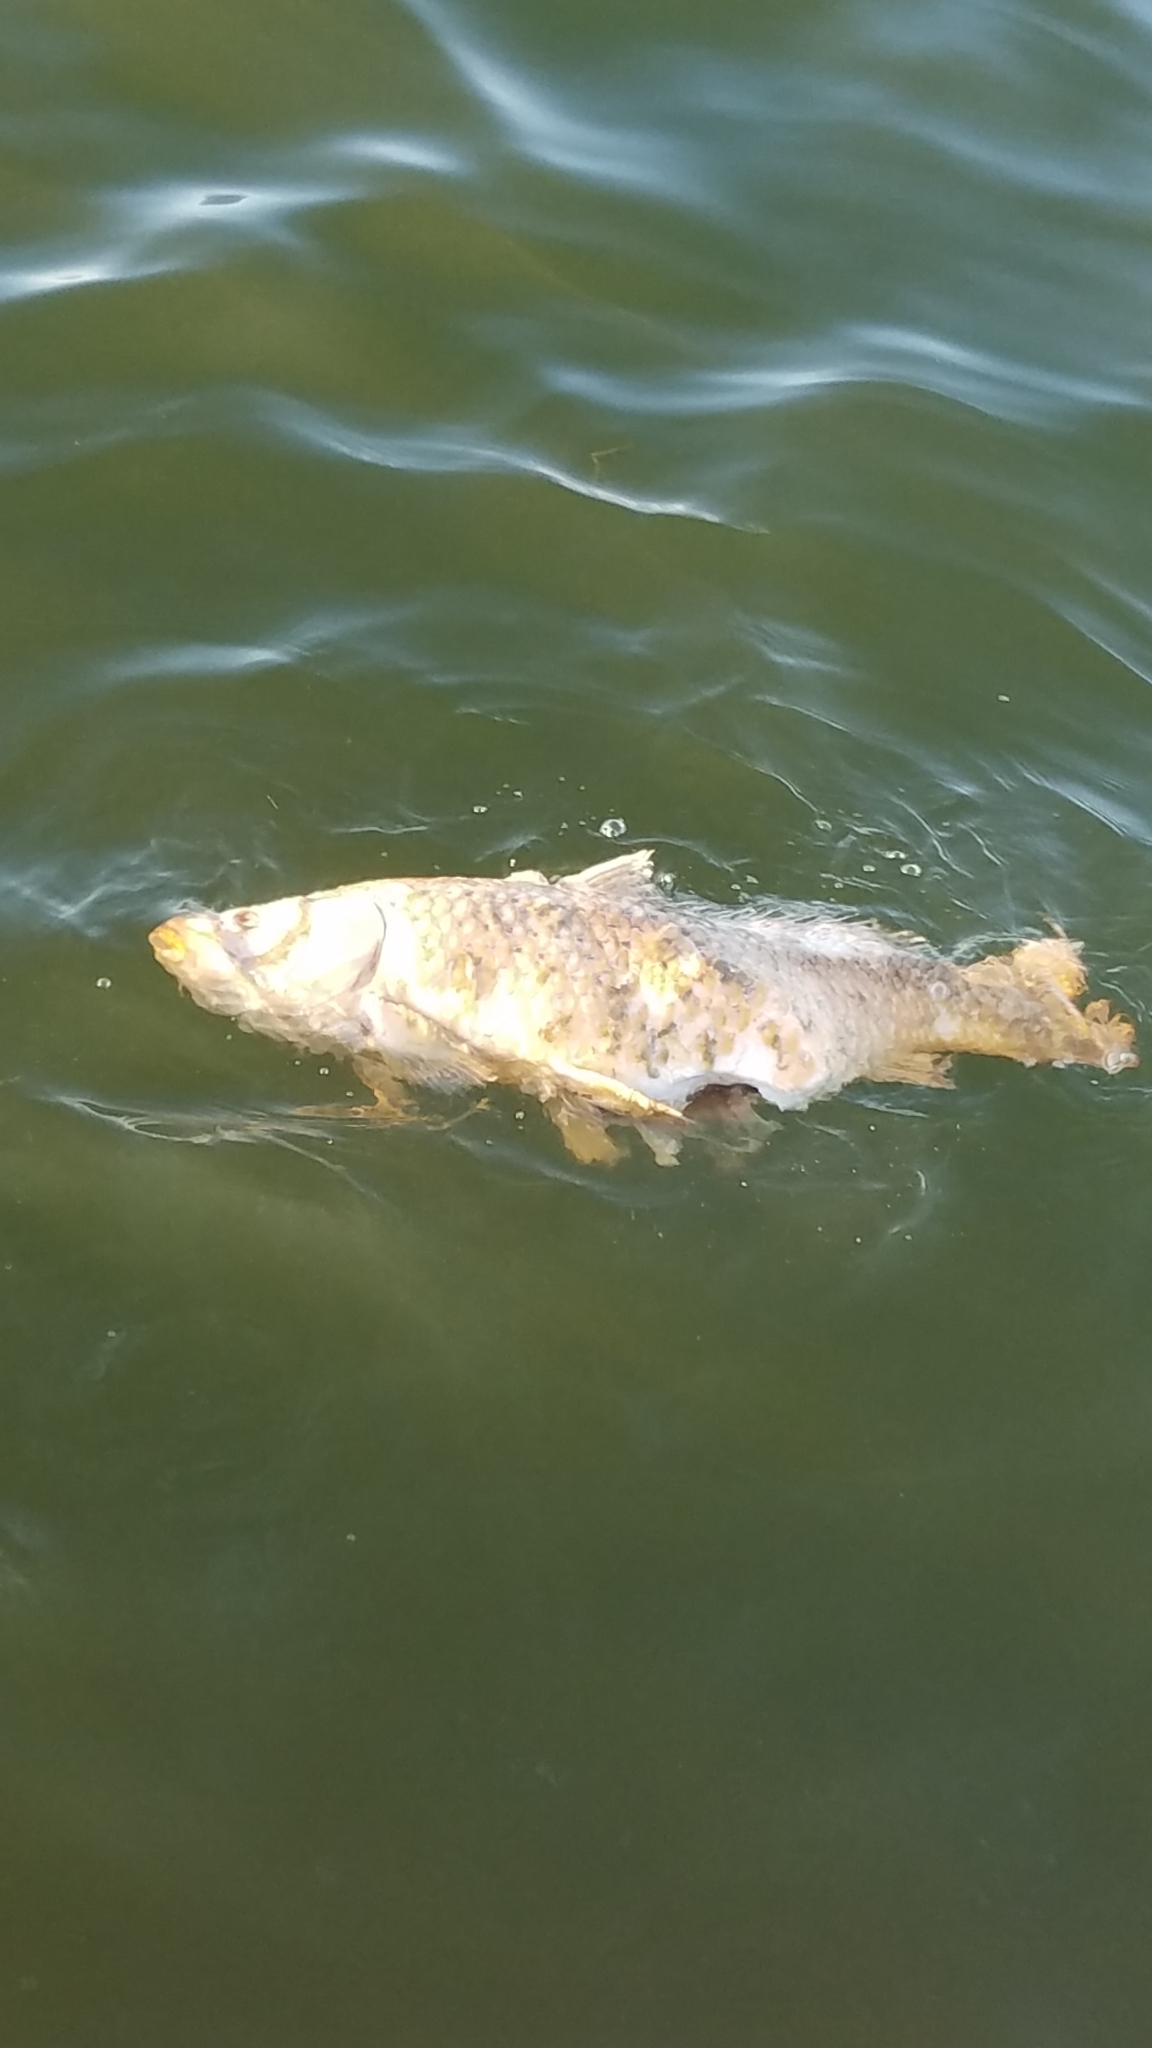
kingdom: Animalia
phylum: Chordata
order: Cypriniformes
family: Cyprinidae
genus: Cyprinus
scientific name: Cyprinus carpio
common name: Common carp
